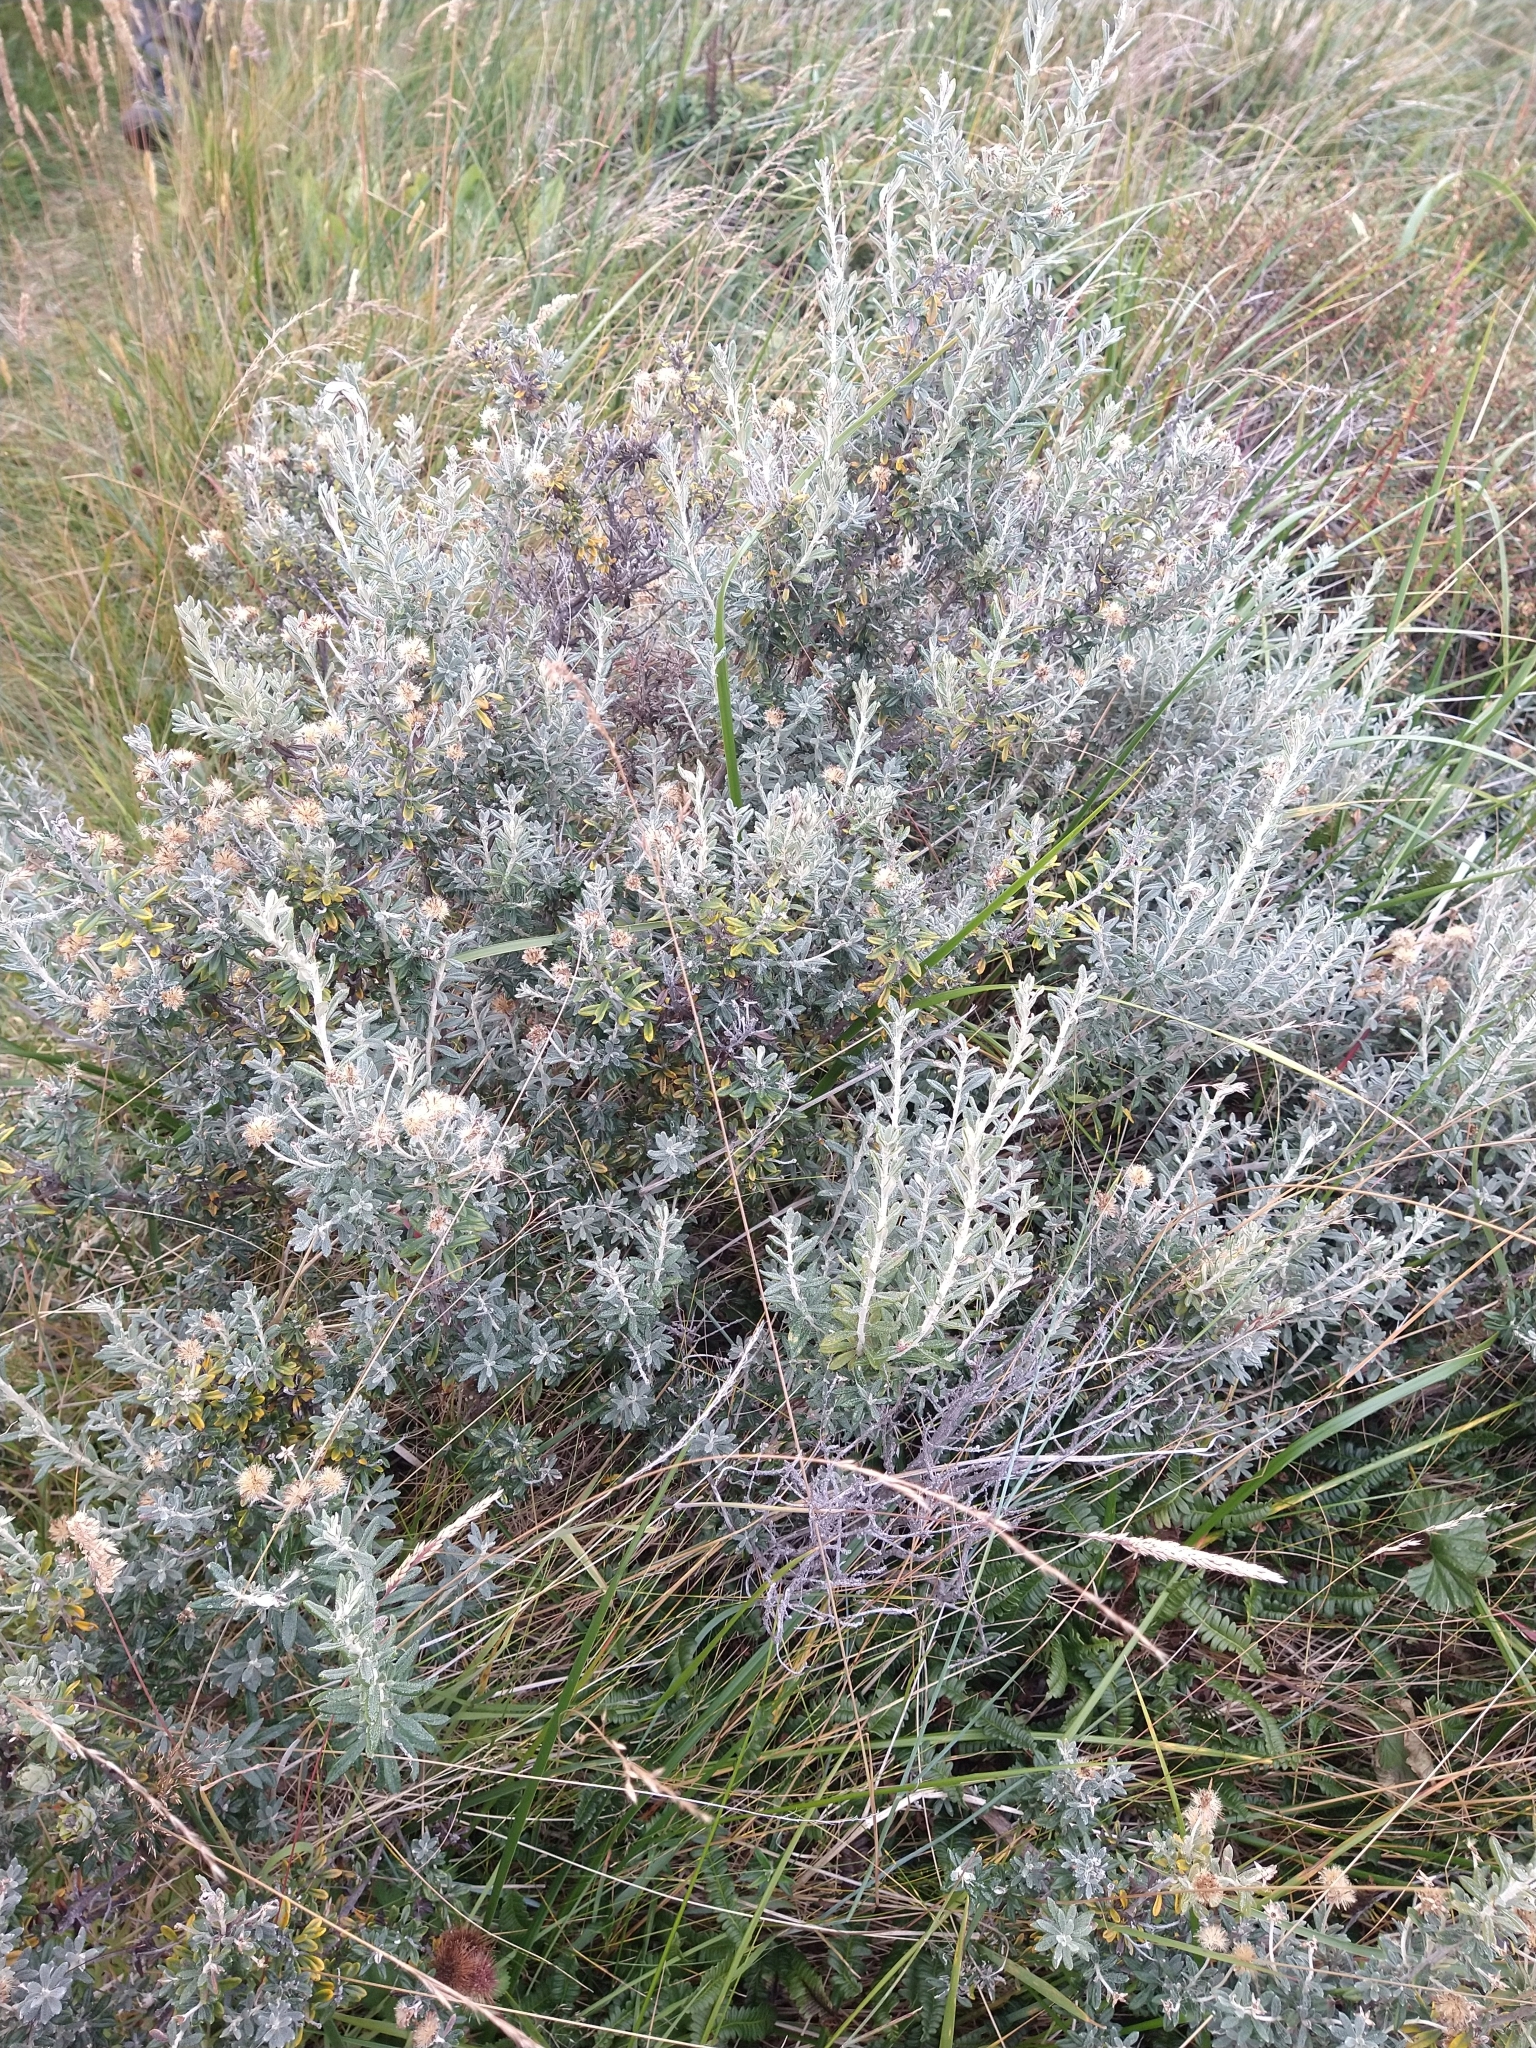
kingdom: Plantae
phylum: Tracheophyta
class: Magnoliopsida
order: Asterales
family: Asteraceae
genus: Chiliotrichum
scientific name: Chiliotrichum diffusum
